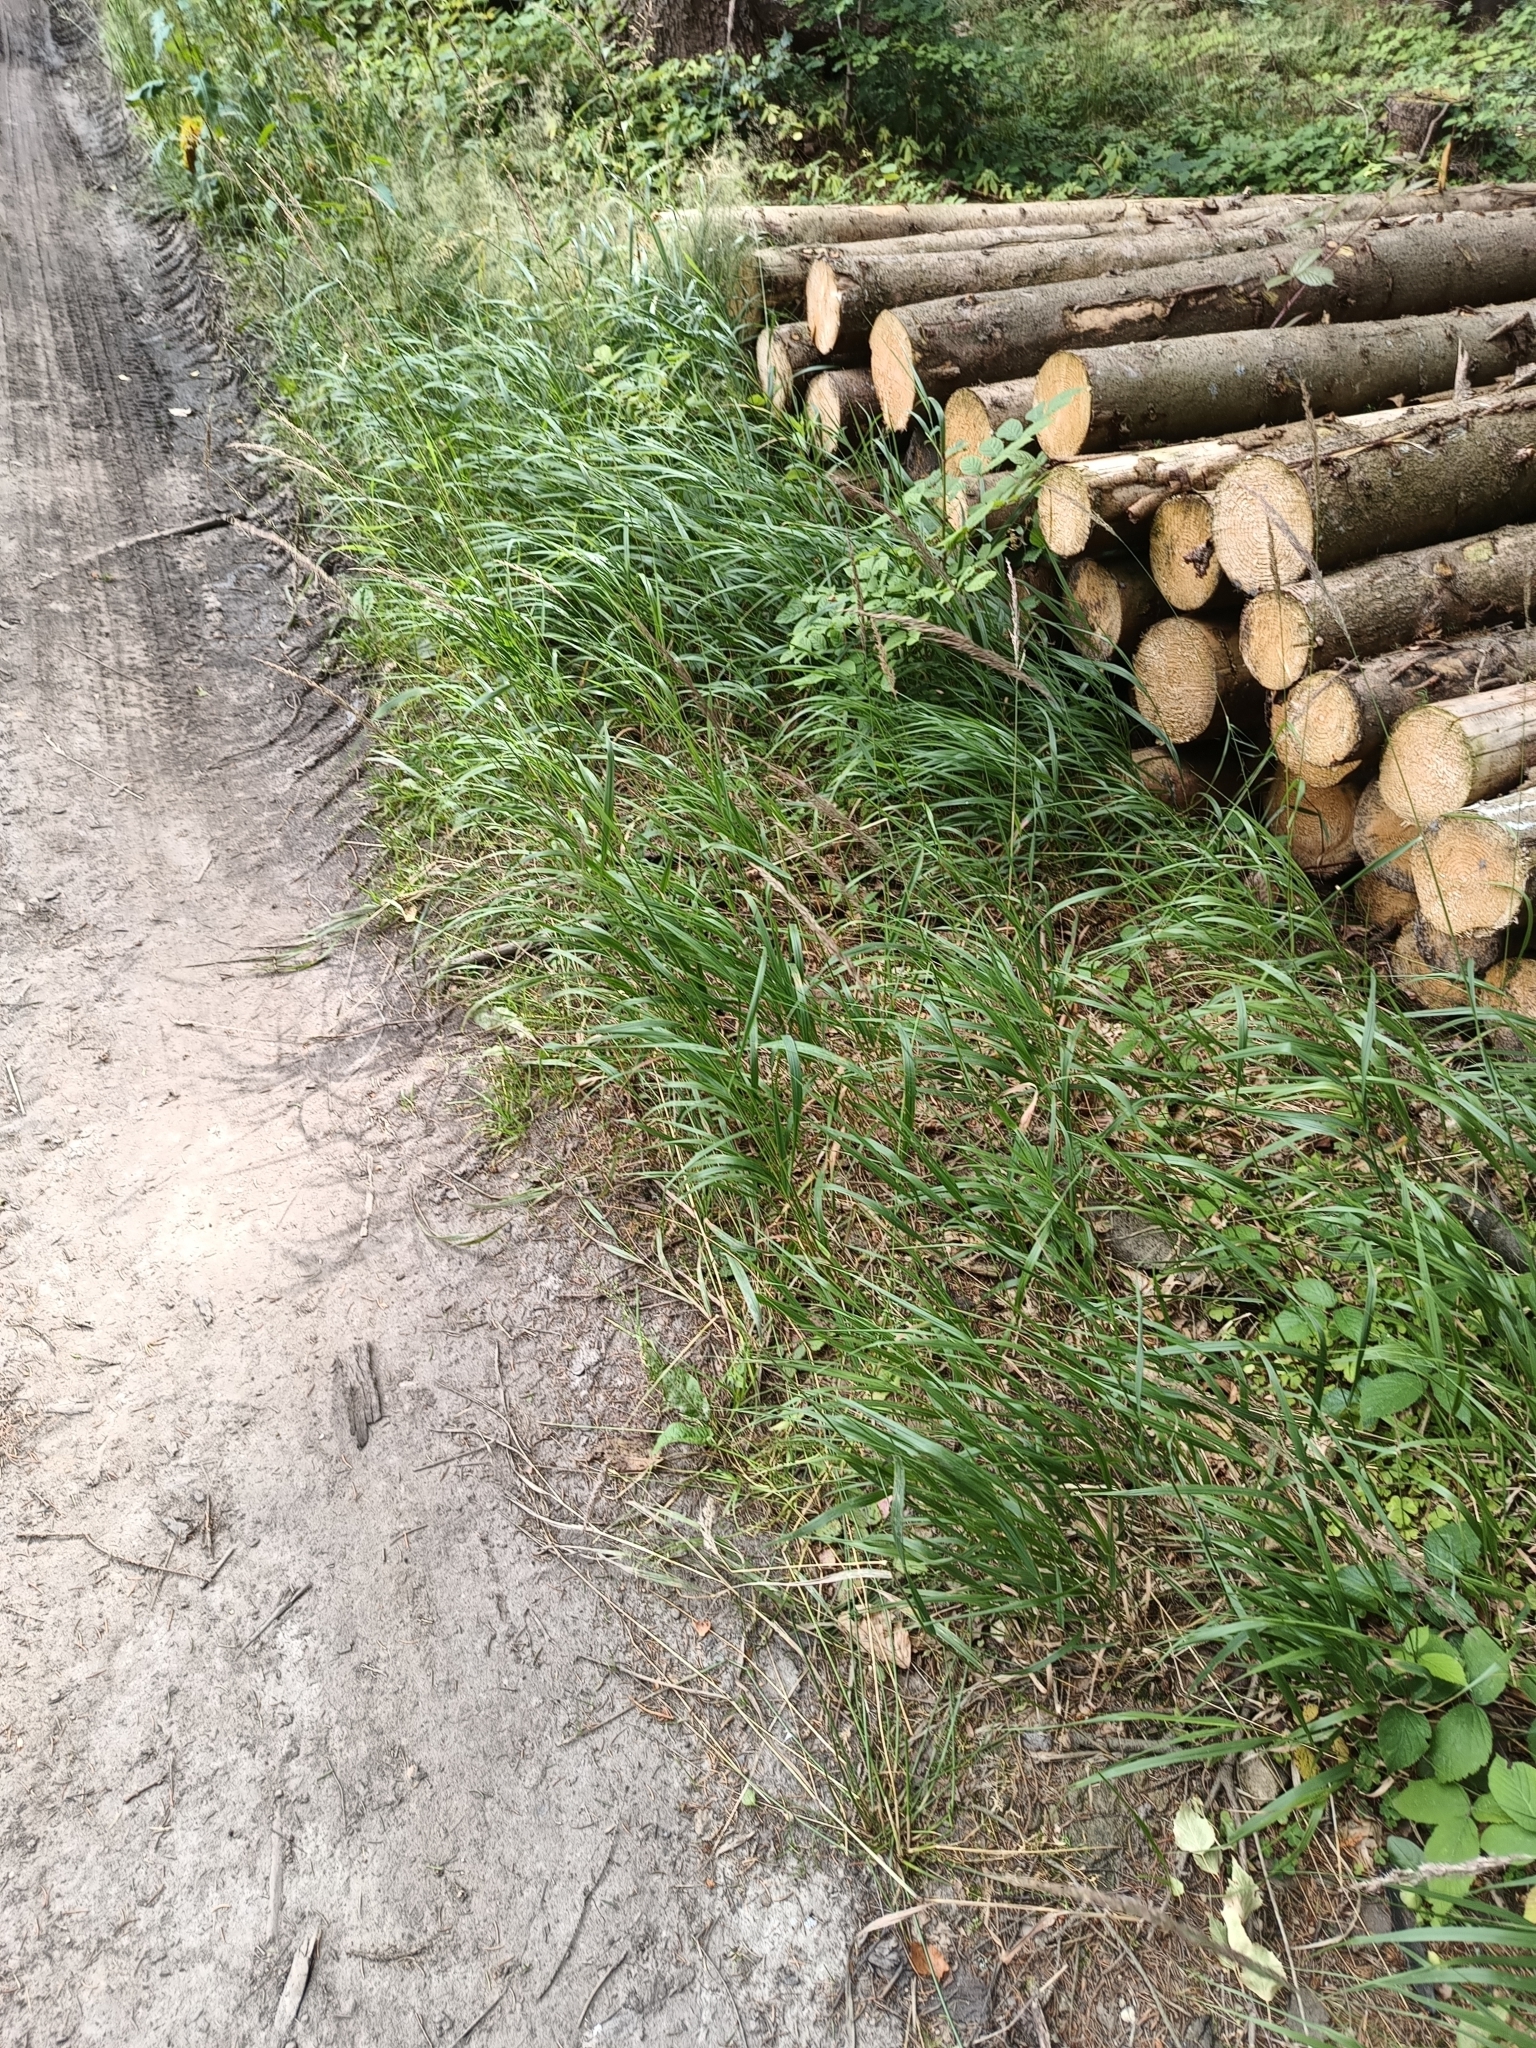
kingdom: Plantae
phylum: Tracheophyta
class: Liliopsida
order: Poales
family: Poaceae
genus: Calamagrostis
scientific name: Calamagrostis villosa
